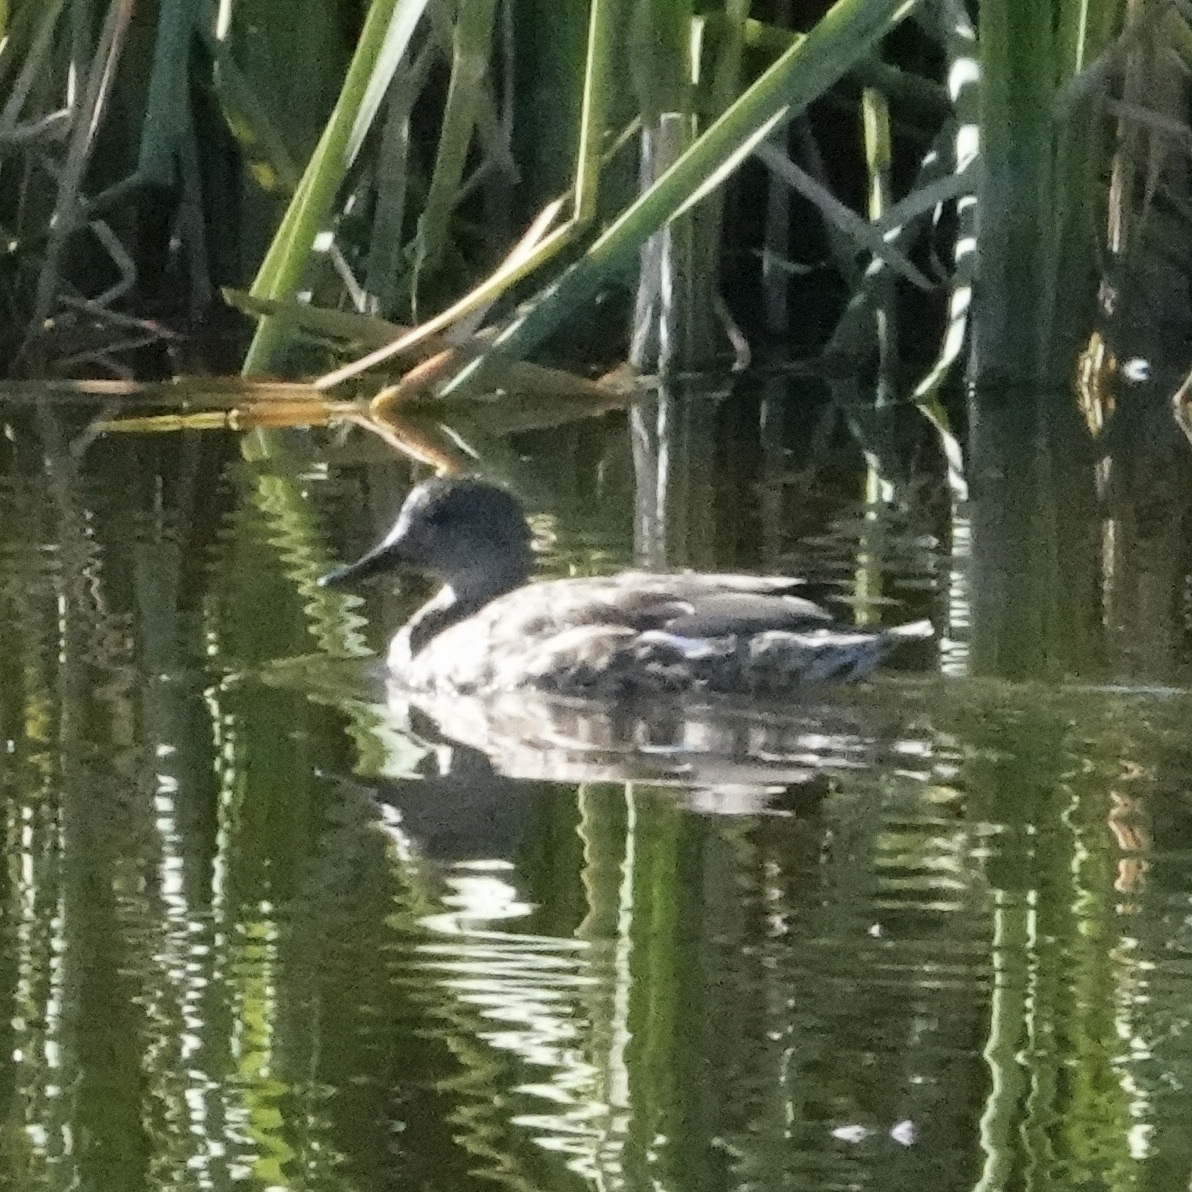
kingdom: Animalia
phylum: Chordata
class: Aves
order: Anseriformes
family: Anatidae
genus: Mareca
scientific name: Mareca strepera
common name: Gadwall
